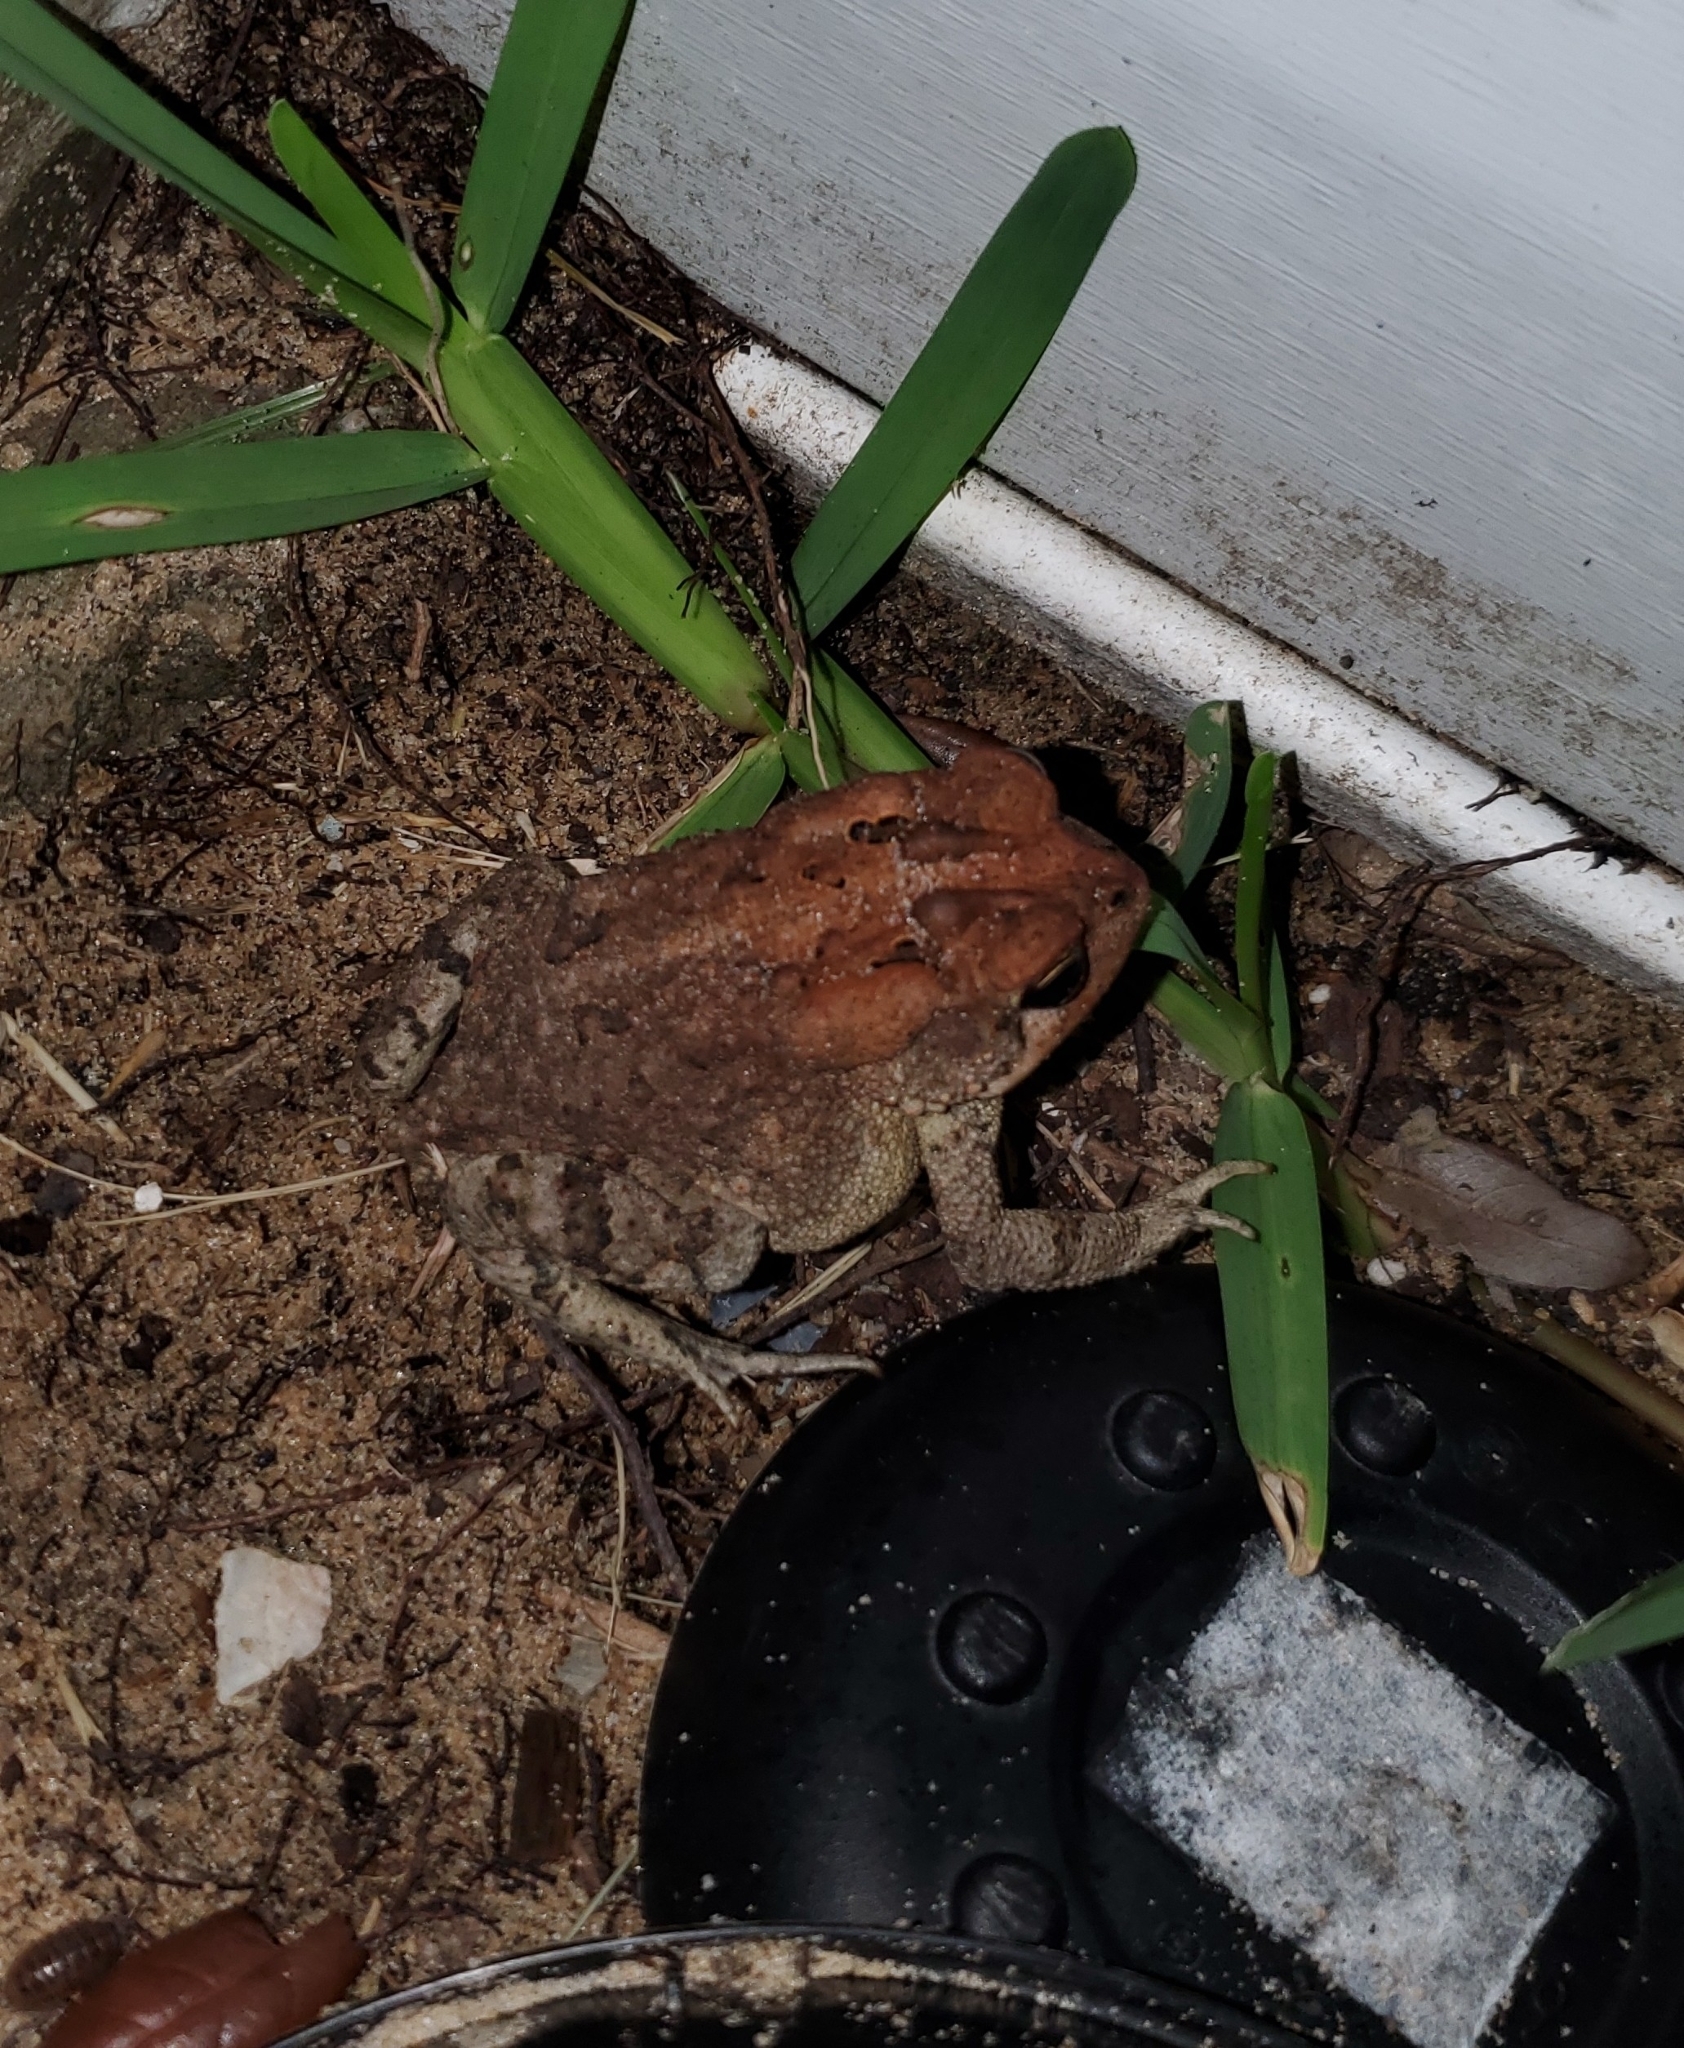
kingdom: Animalia
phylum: Chordata
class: Amphibia
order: Anura
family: Bufonidae
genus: Anaxyrus
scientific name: Anaxyrus terrestris
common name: Southern toad
